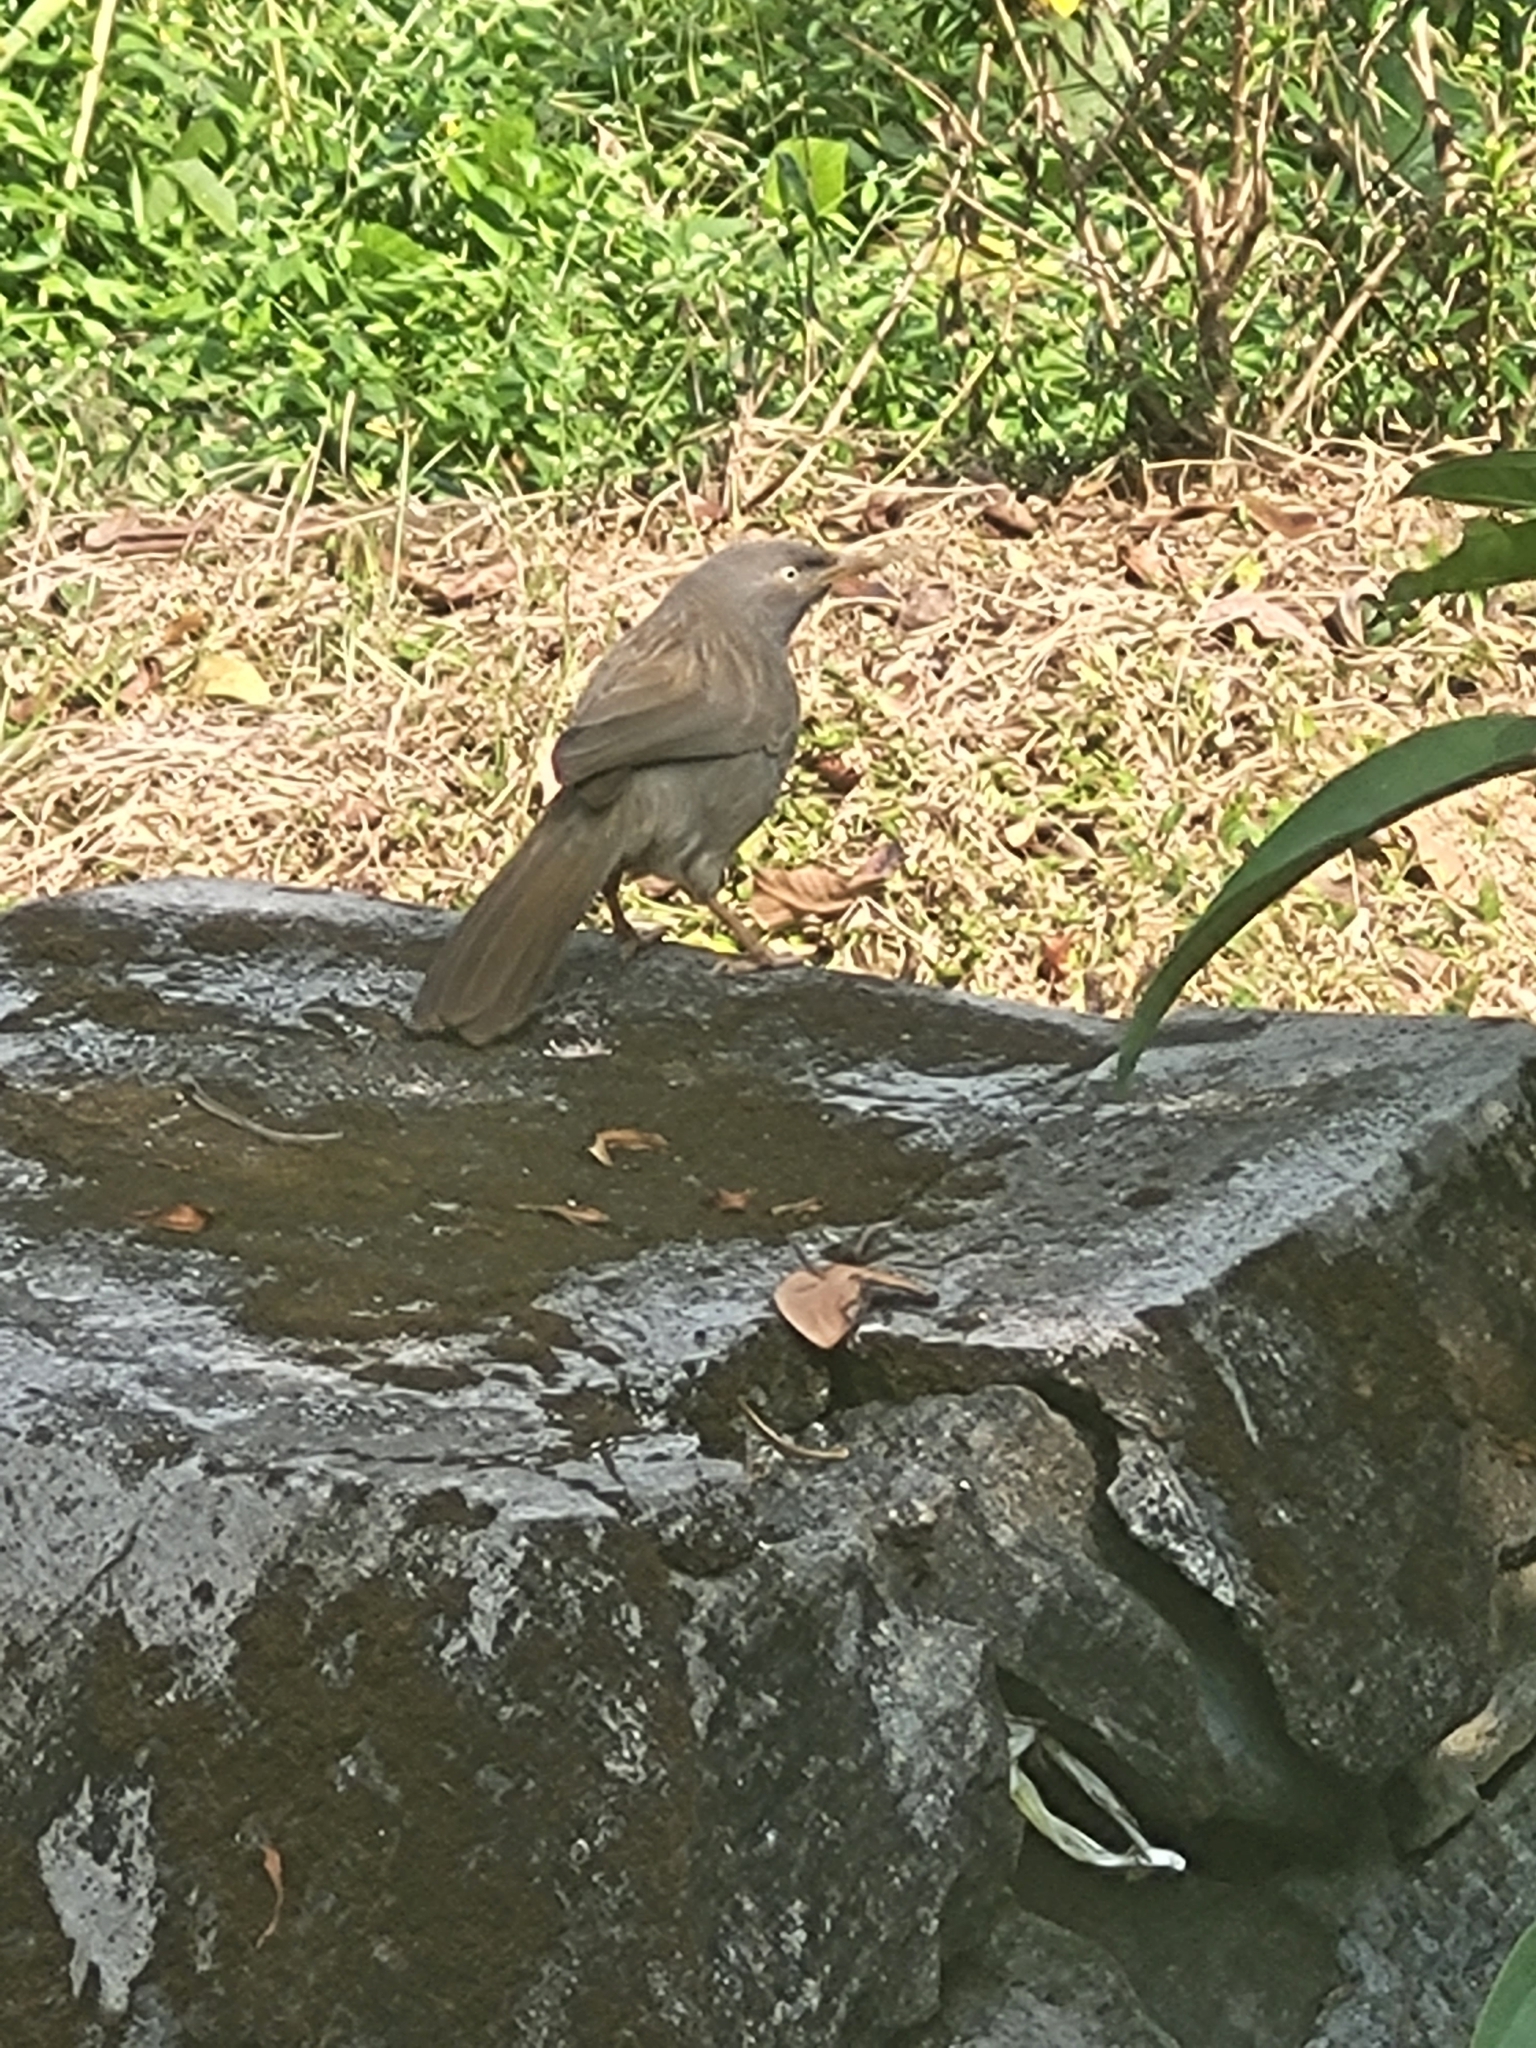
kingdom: Animalia
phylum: Chordata
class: Aves
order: Passeriformes
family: Leiothrichidae
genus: Turdoides
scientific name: Turdoides striata
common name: Jungle babbler
